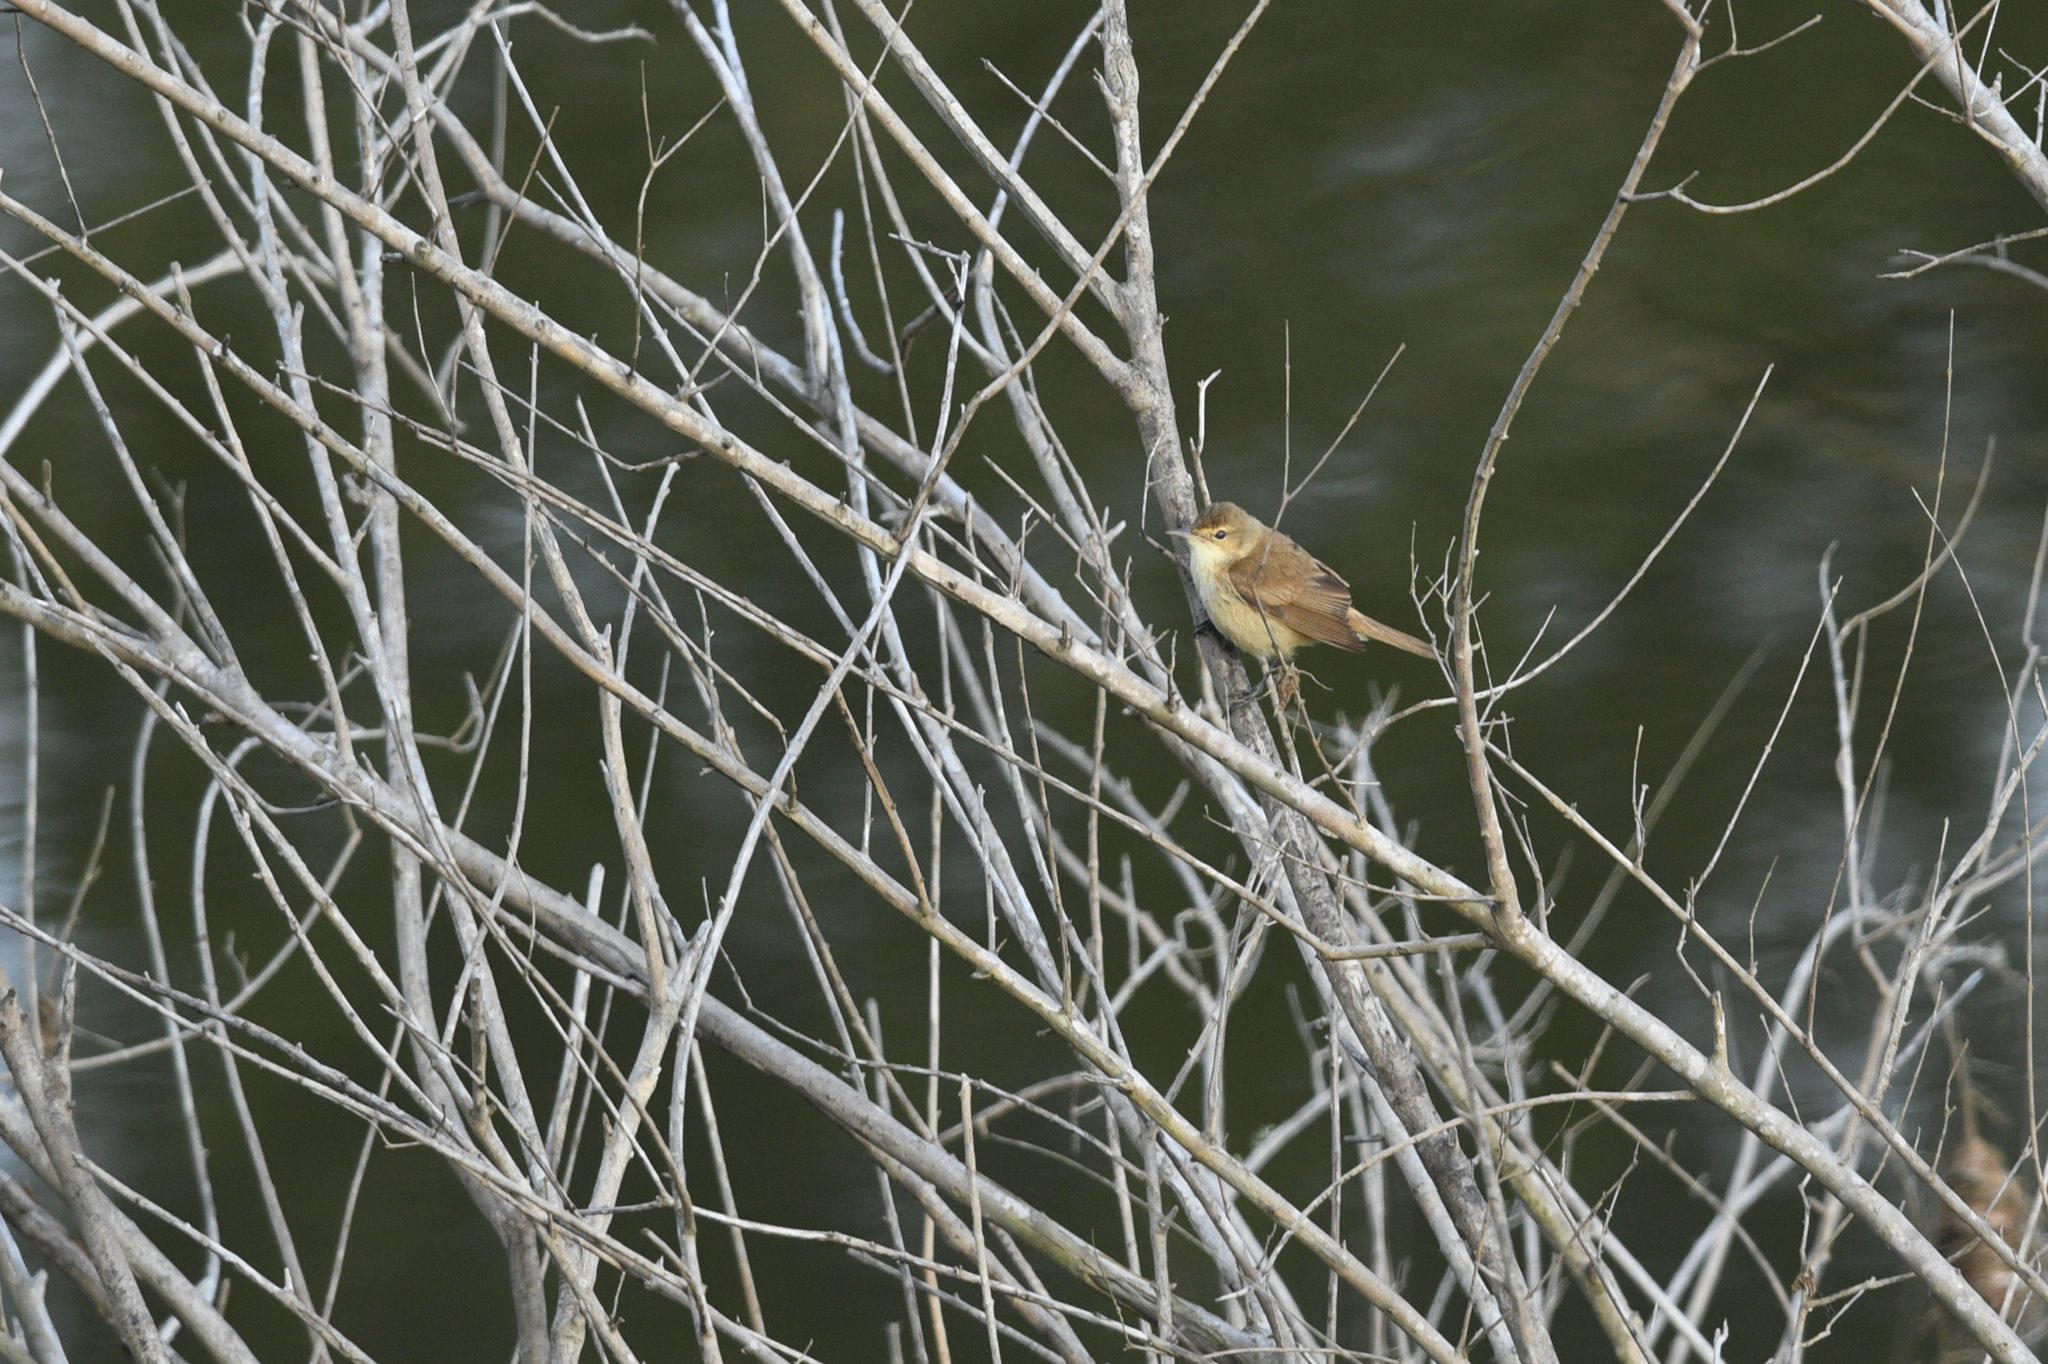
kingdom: Animalia
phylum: Chordata
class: Aves
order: Passeriformes
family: Acrocephalidae
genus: Acrocephalus
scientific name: Acrocephalus australis
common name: Australian reed warbler
